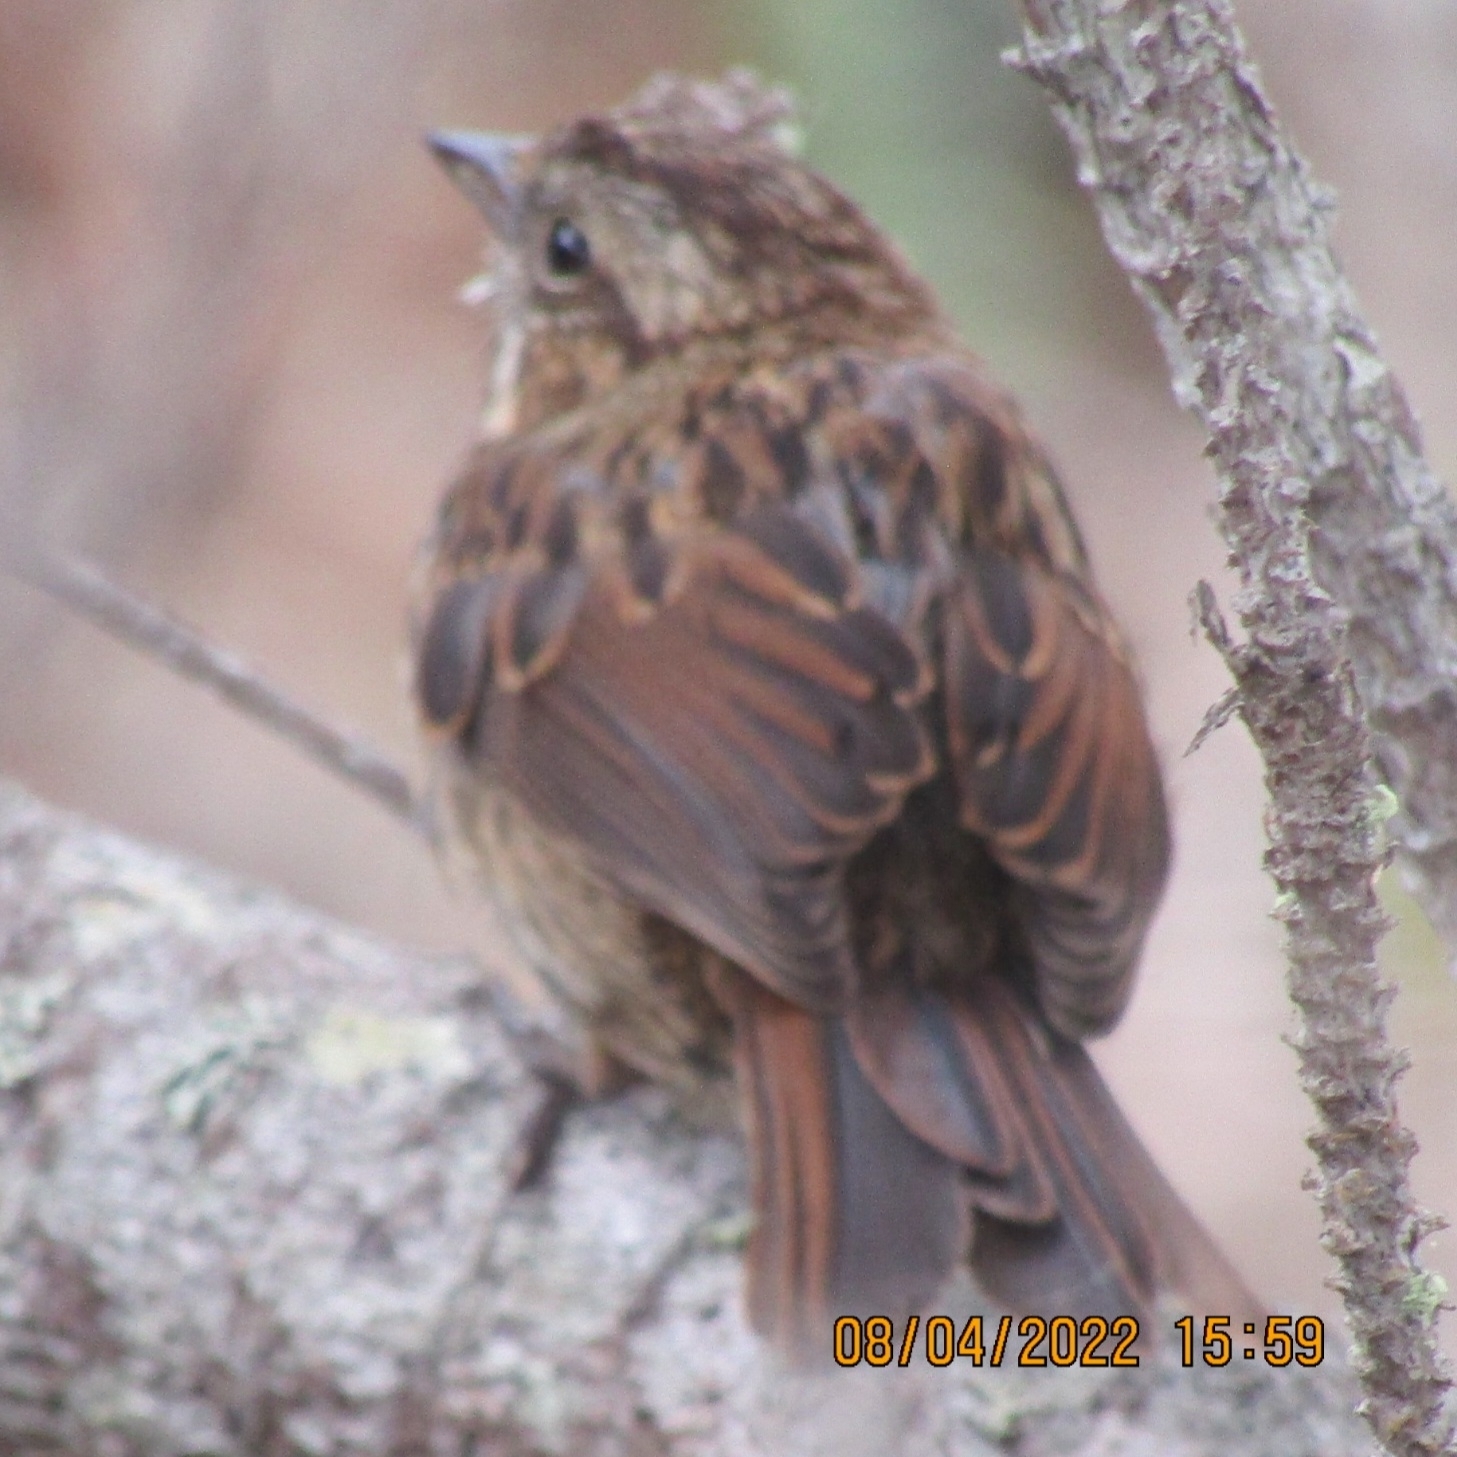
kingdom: Animalia
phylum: Chordata
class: Aves
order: Passeriformes
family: Passerellidae
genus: Melospiza
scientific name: Melospiza melodia
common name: Song sparrow
